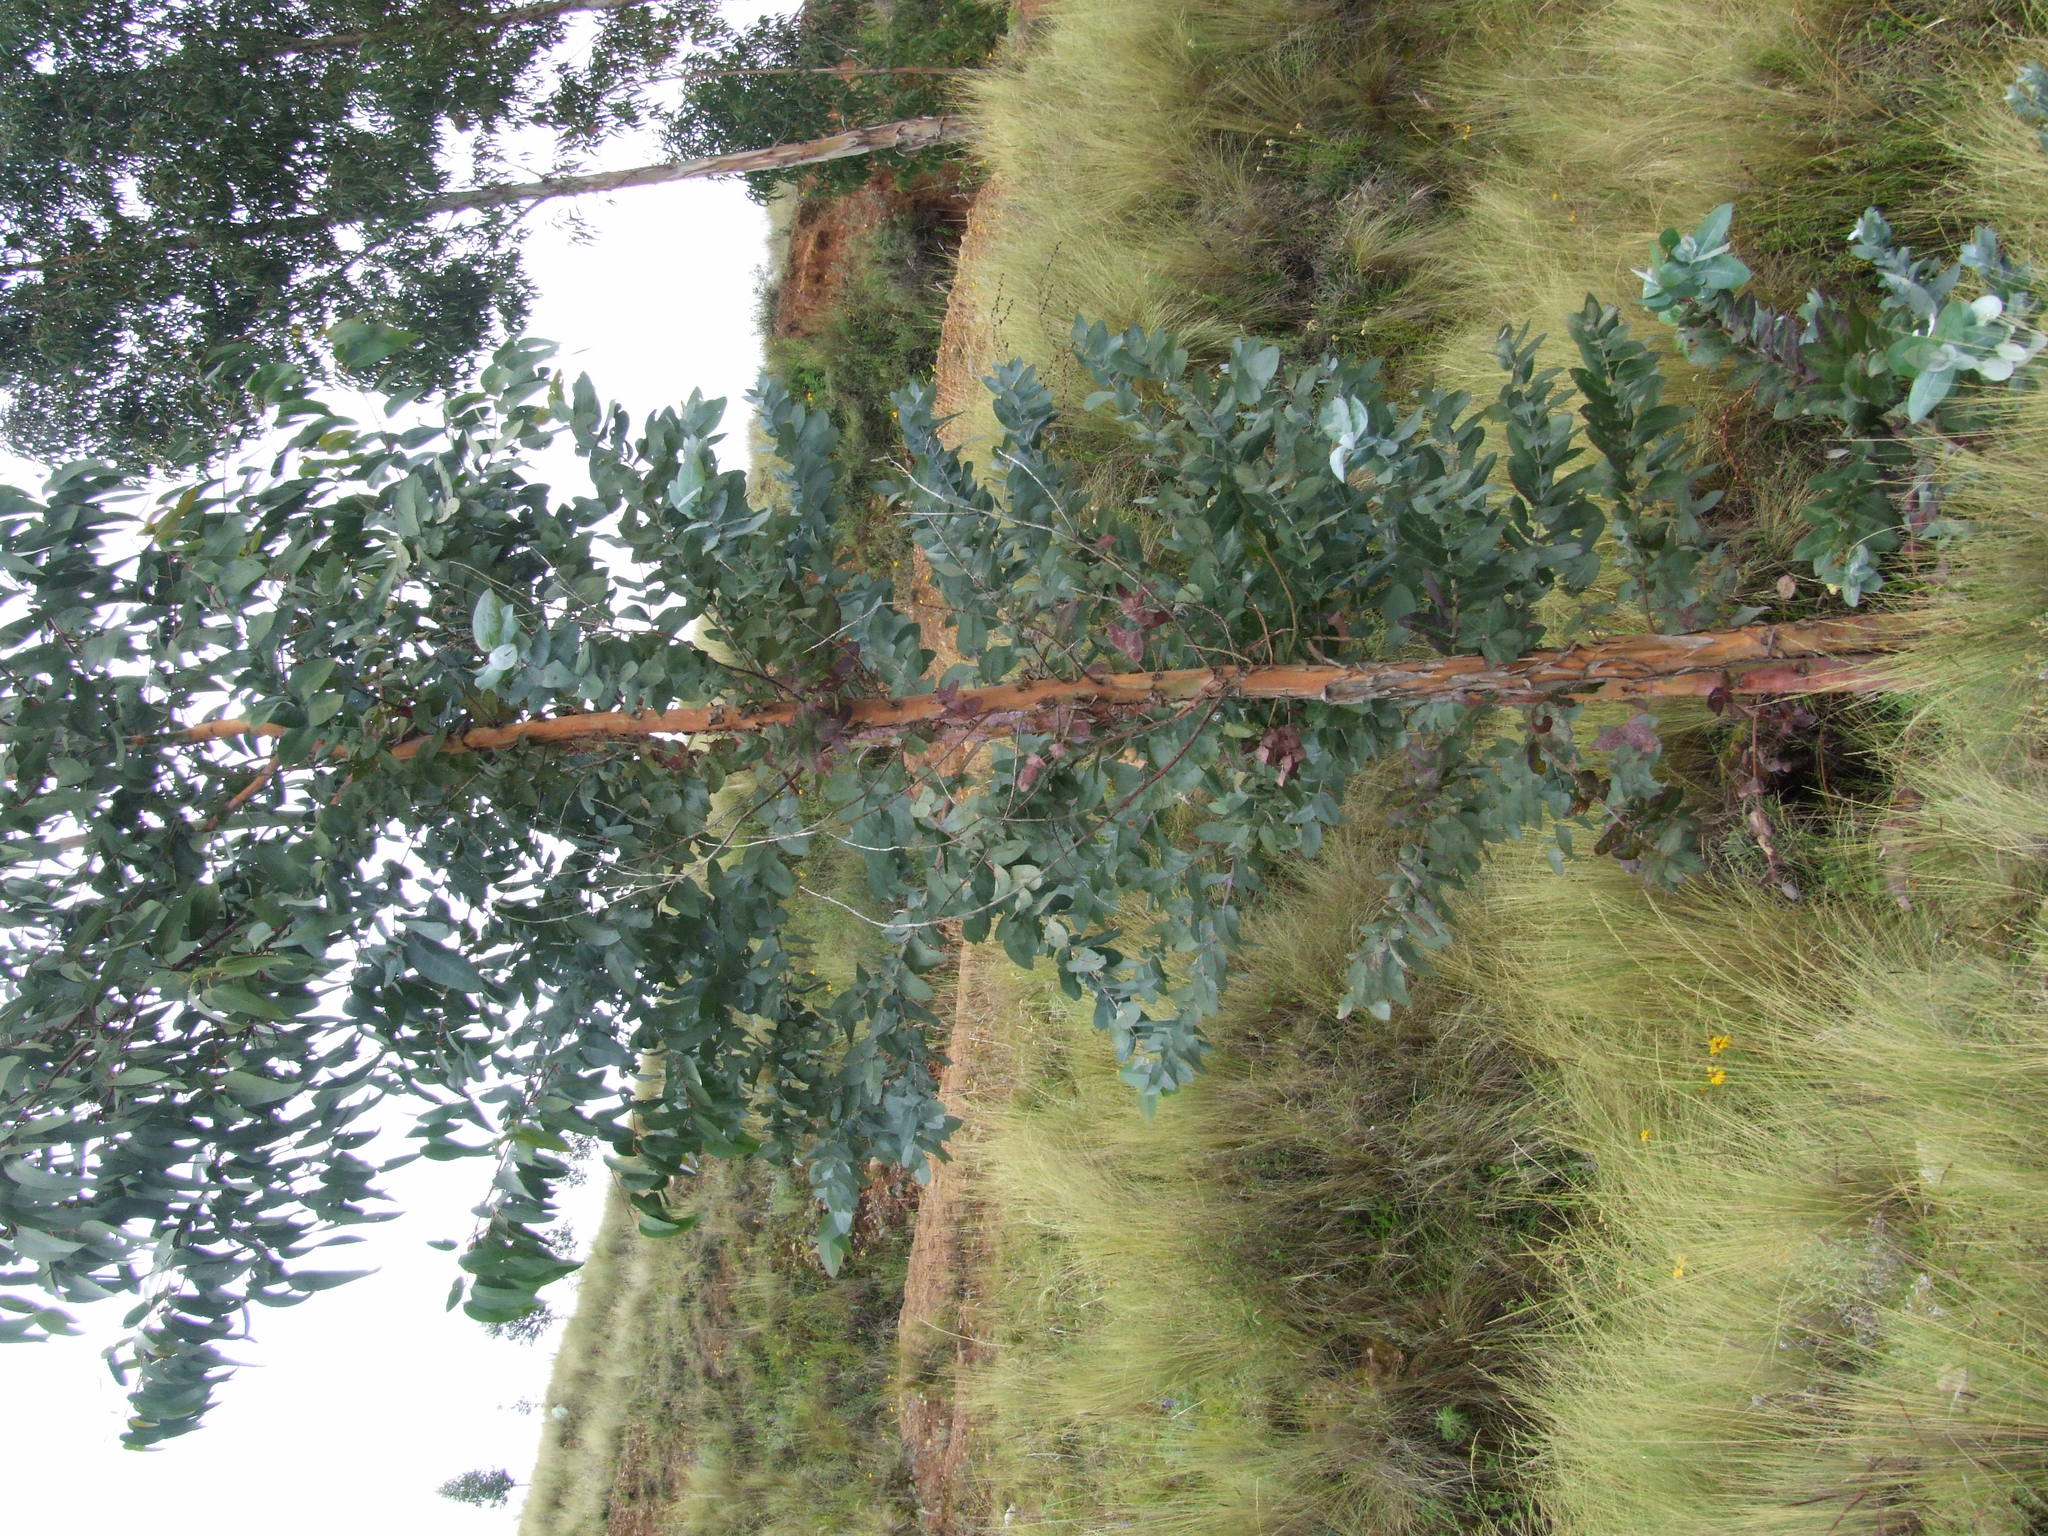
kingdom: Plantae
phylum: Tracheophyta
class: Magnoliopsida
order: Myrtales
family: Myrtaceae
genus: Eucalyptus
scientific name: Eucalyptus globulus
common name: Southern blue-gum
